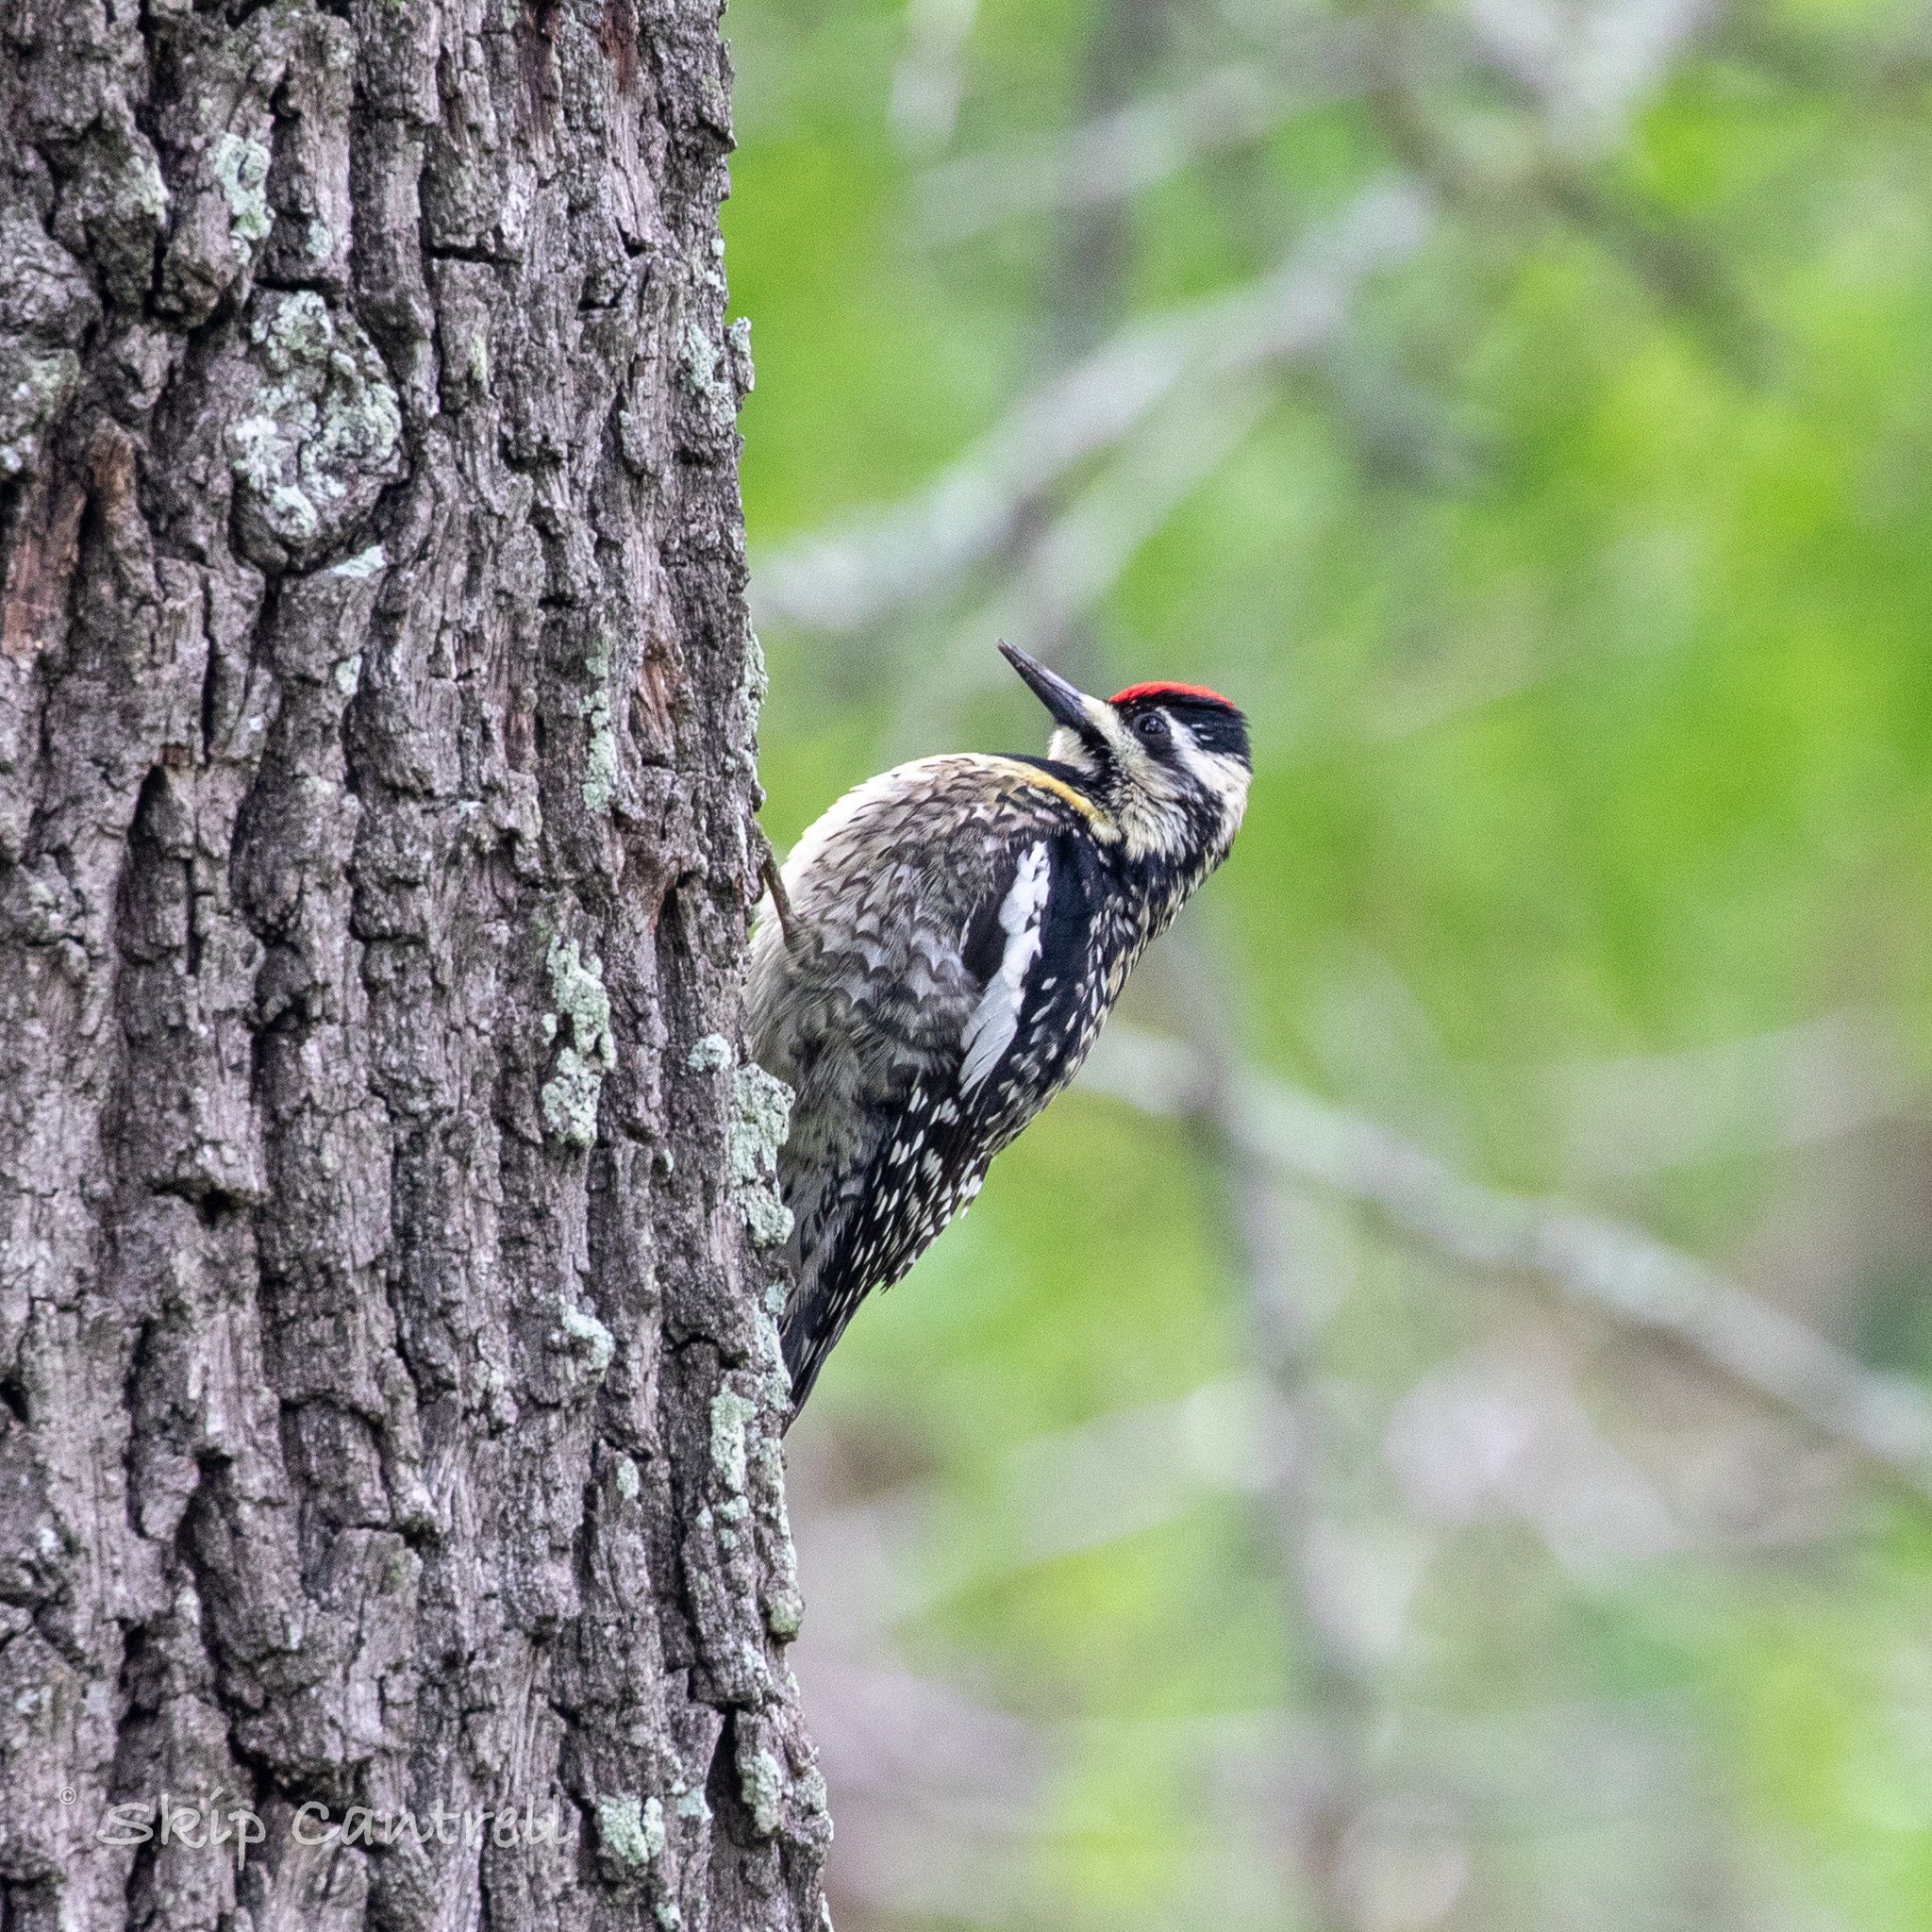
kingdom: Animalia
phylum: Chordata
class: Aves
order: Piciformes
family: Picidae
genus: Sphyrapicus
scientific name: Sphyrapicus varius
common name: Yellow-bellied sapsucker
